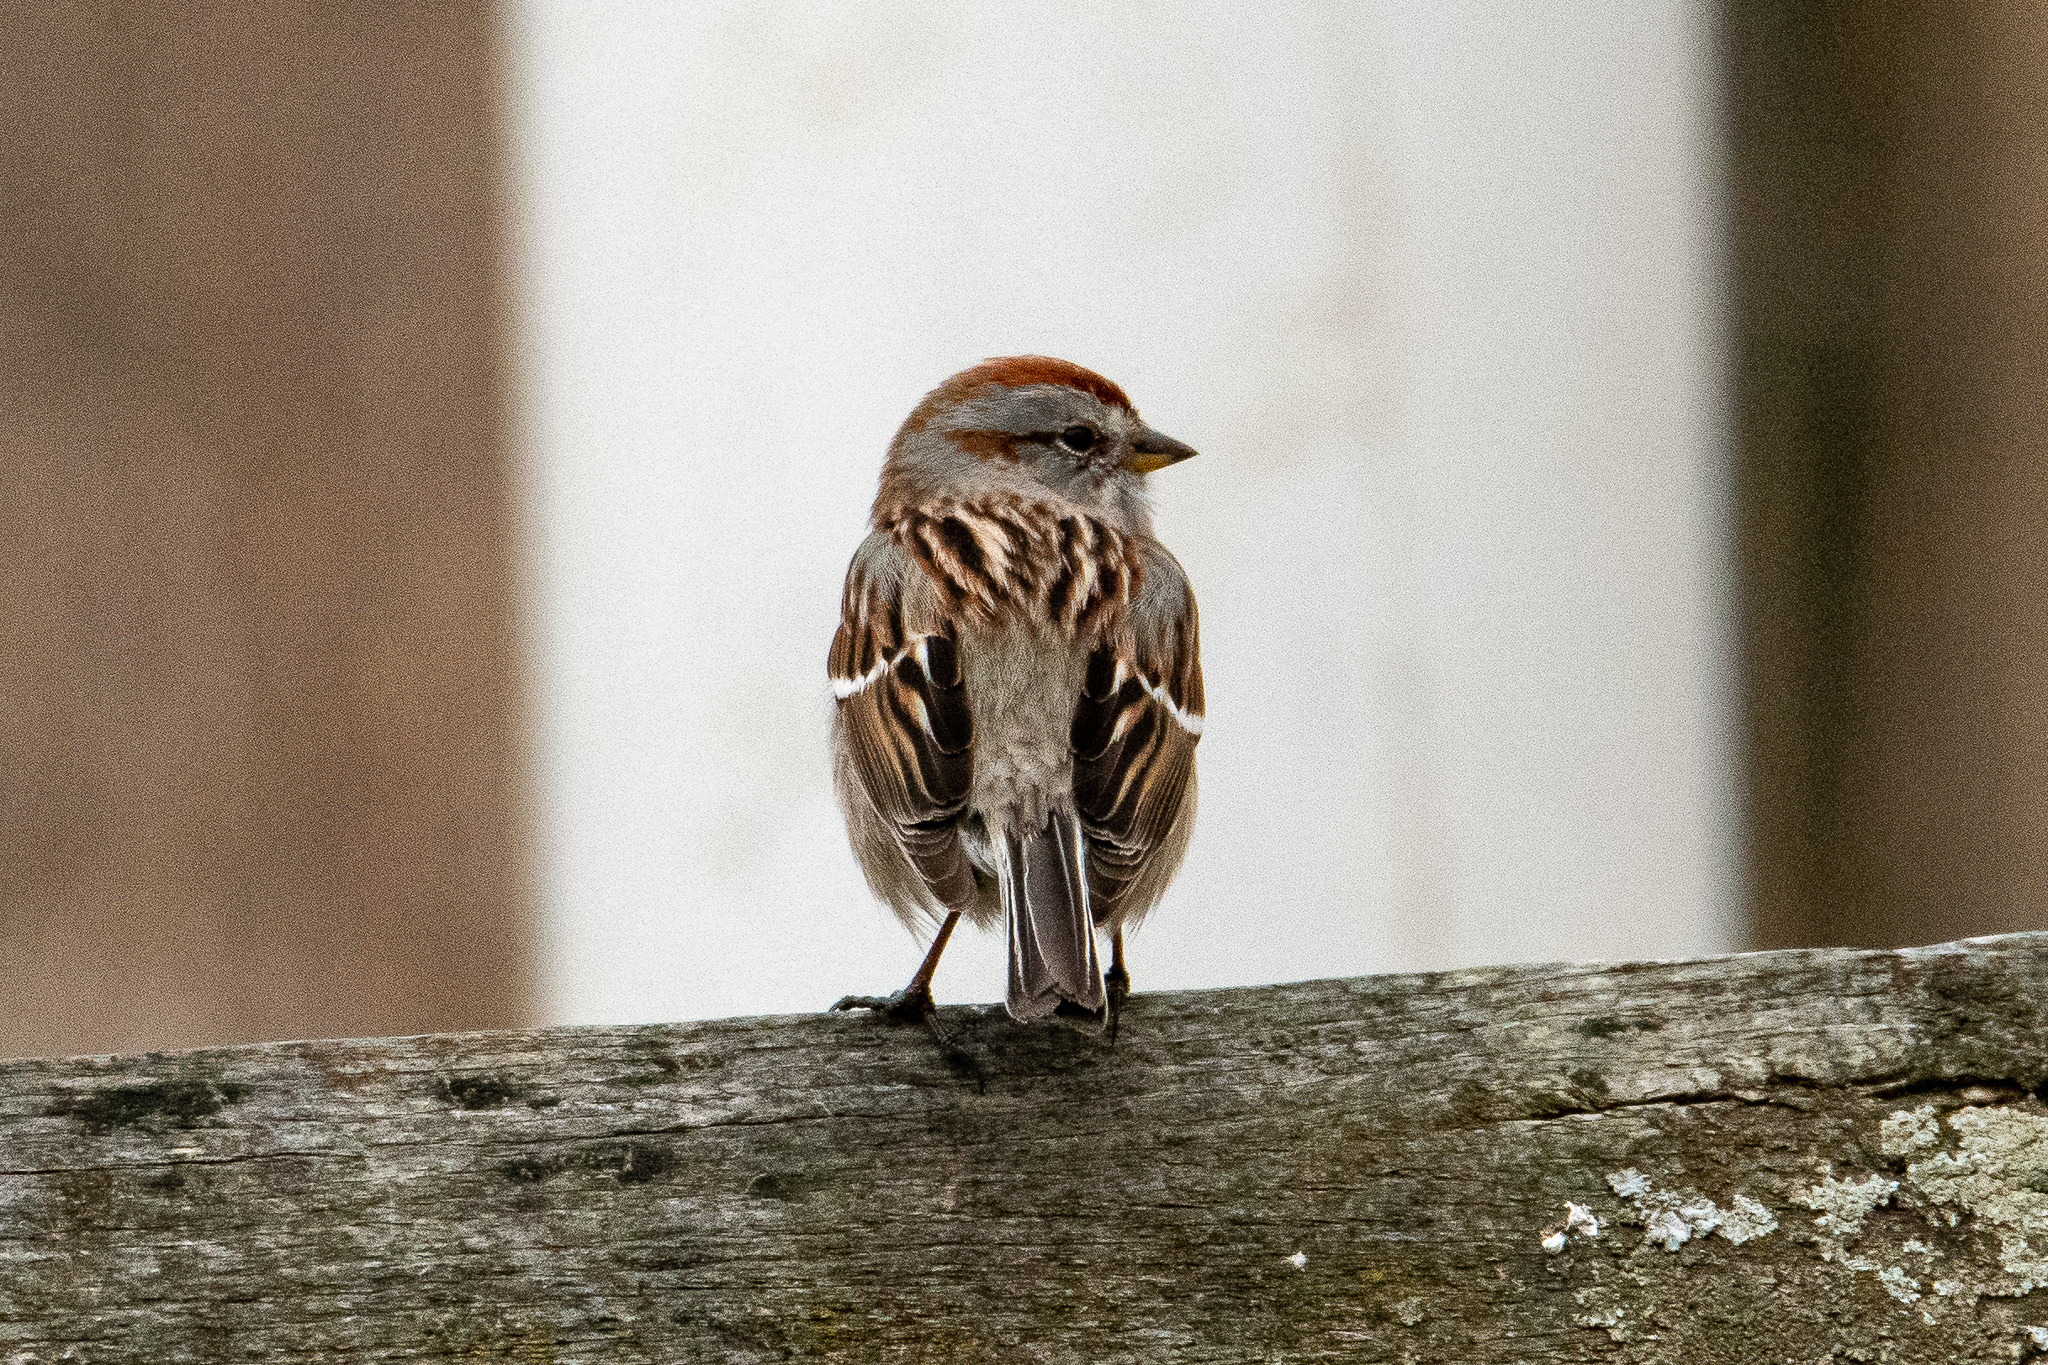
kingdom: Animalia
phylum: Chordata
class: Aves
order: Passeriformes
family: Passerellidae
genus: Spizelloides
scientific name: Spizelloides arborea
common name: American tree sparrow
